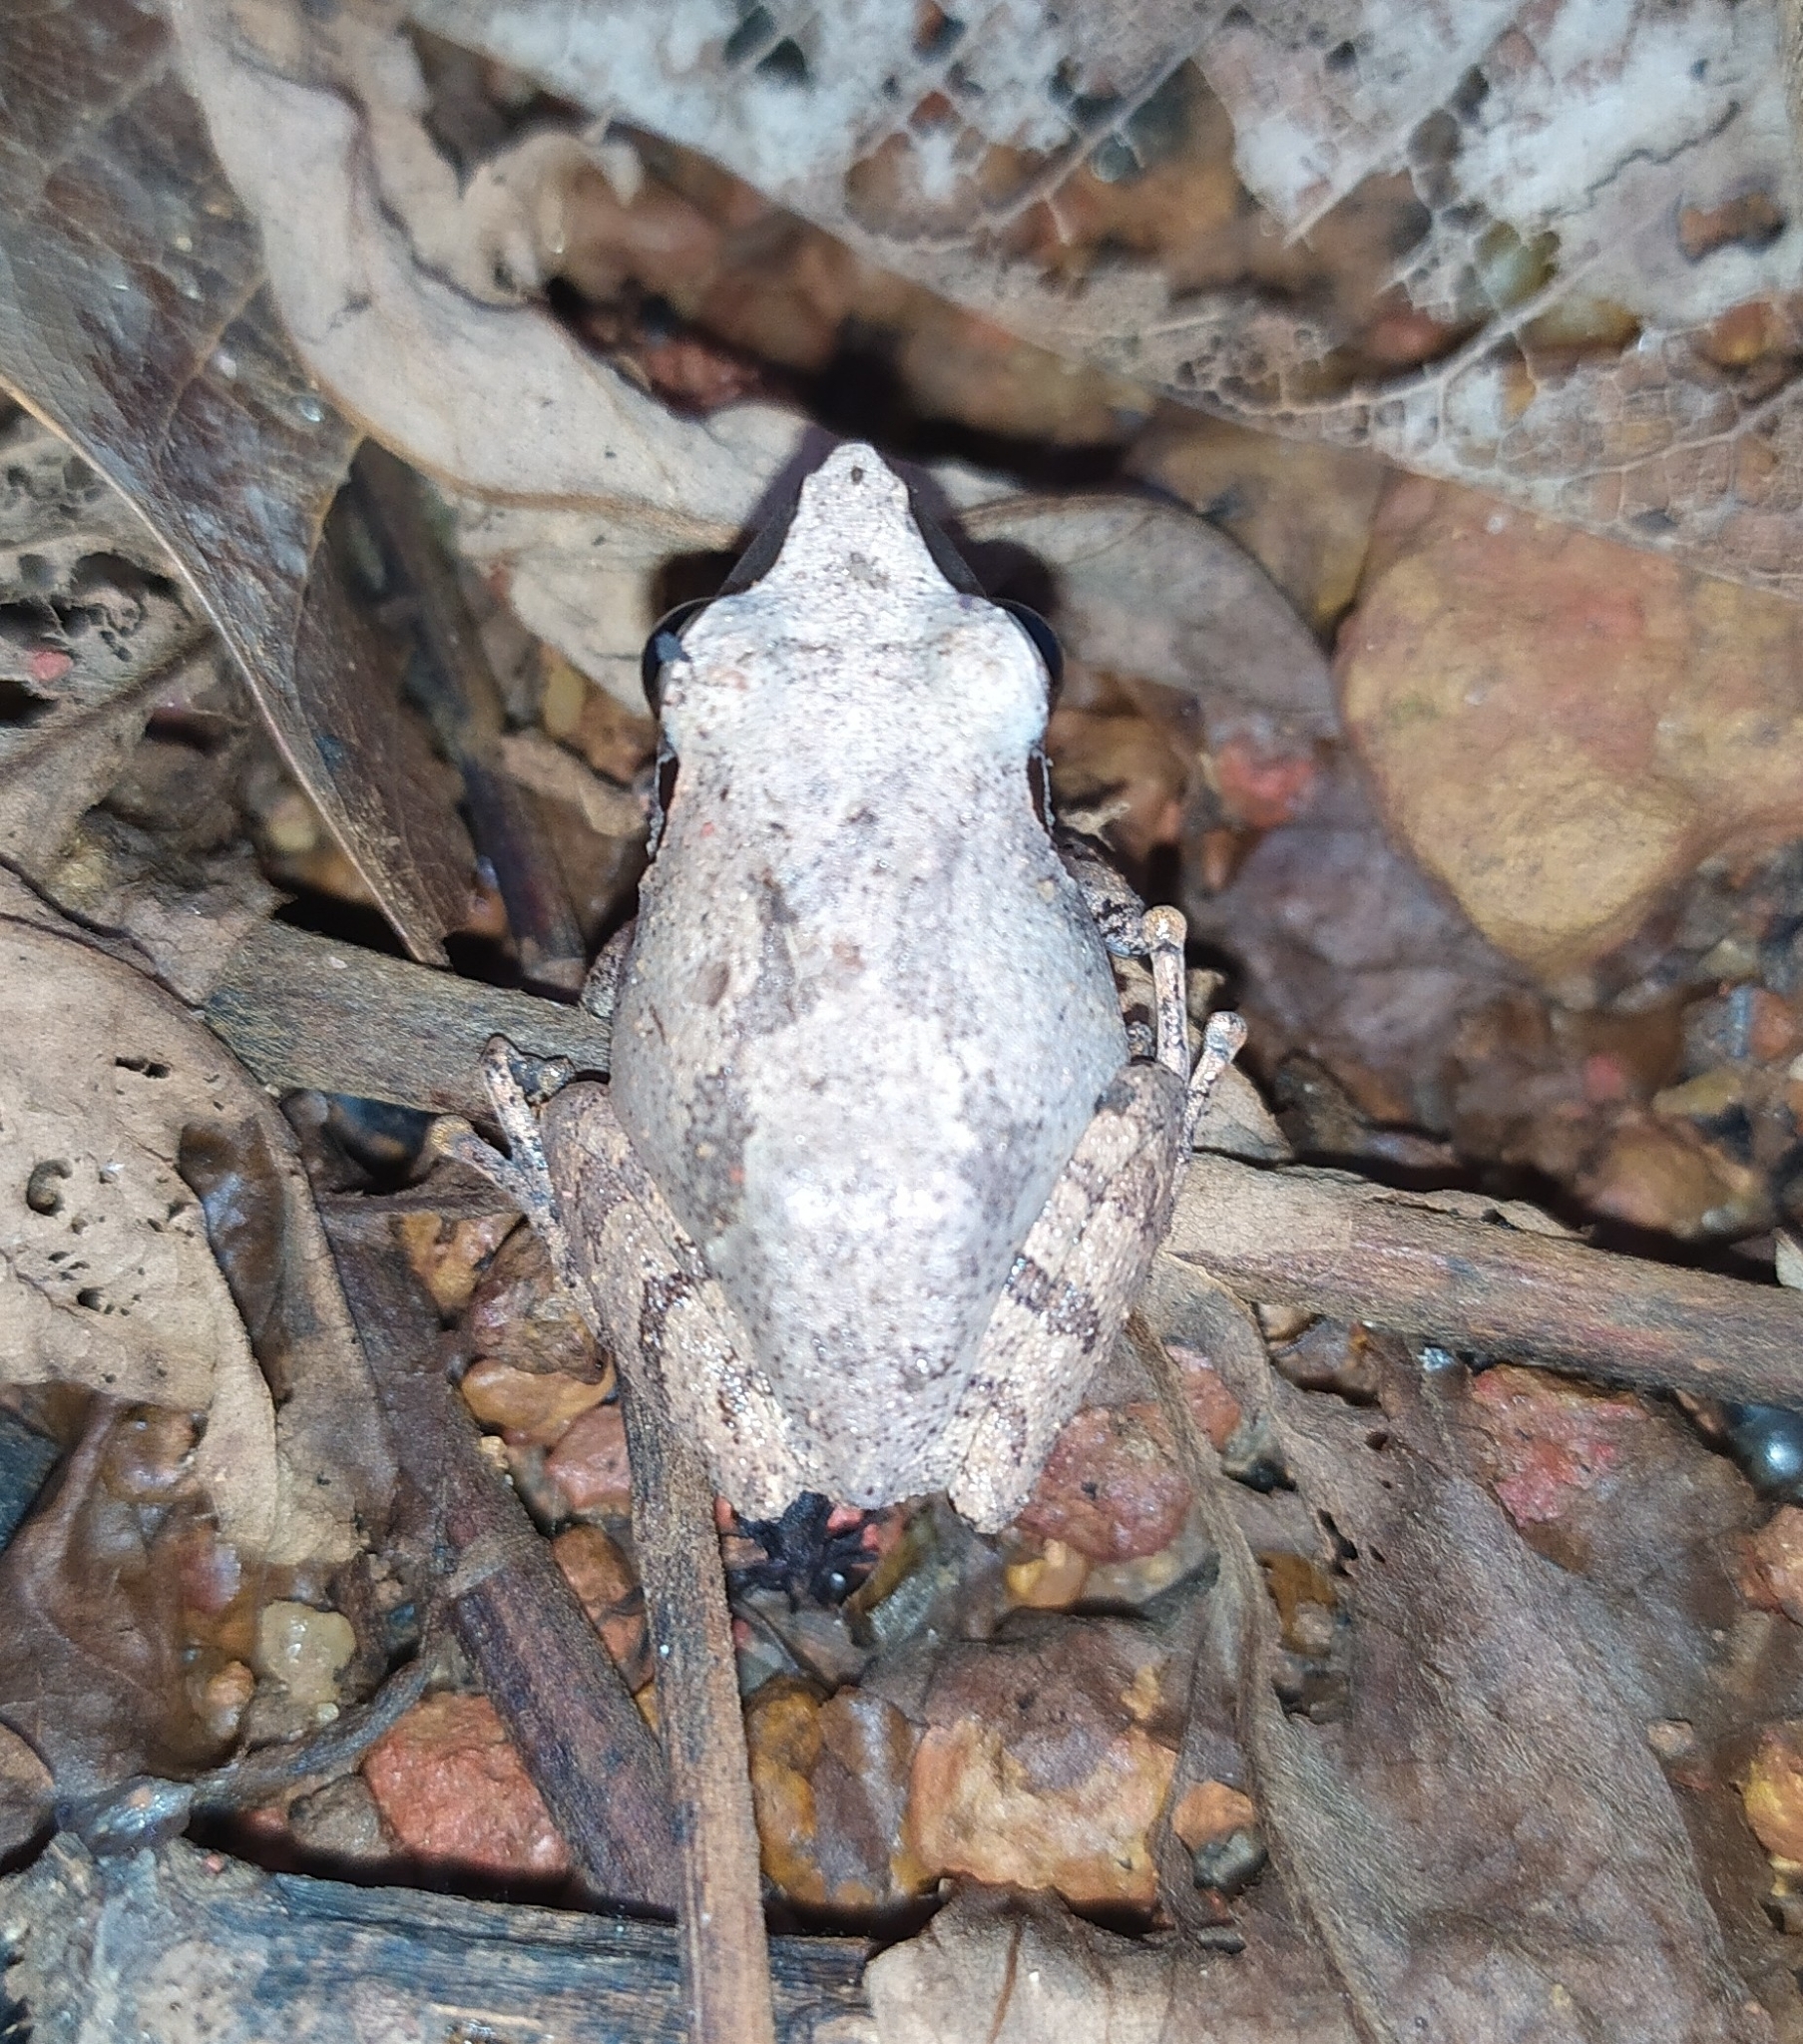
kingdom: Animalia
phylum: Chordata
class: Amphibia
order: Anura
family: Rhacophoridae
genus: Pseudophilautus
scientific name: Pseudophilautus wynaadensis
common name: Dark-eared bush frog
